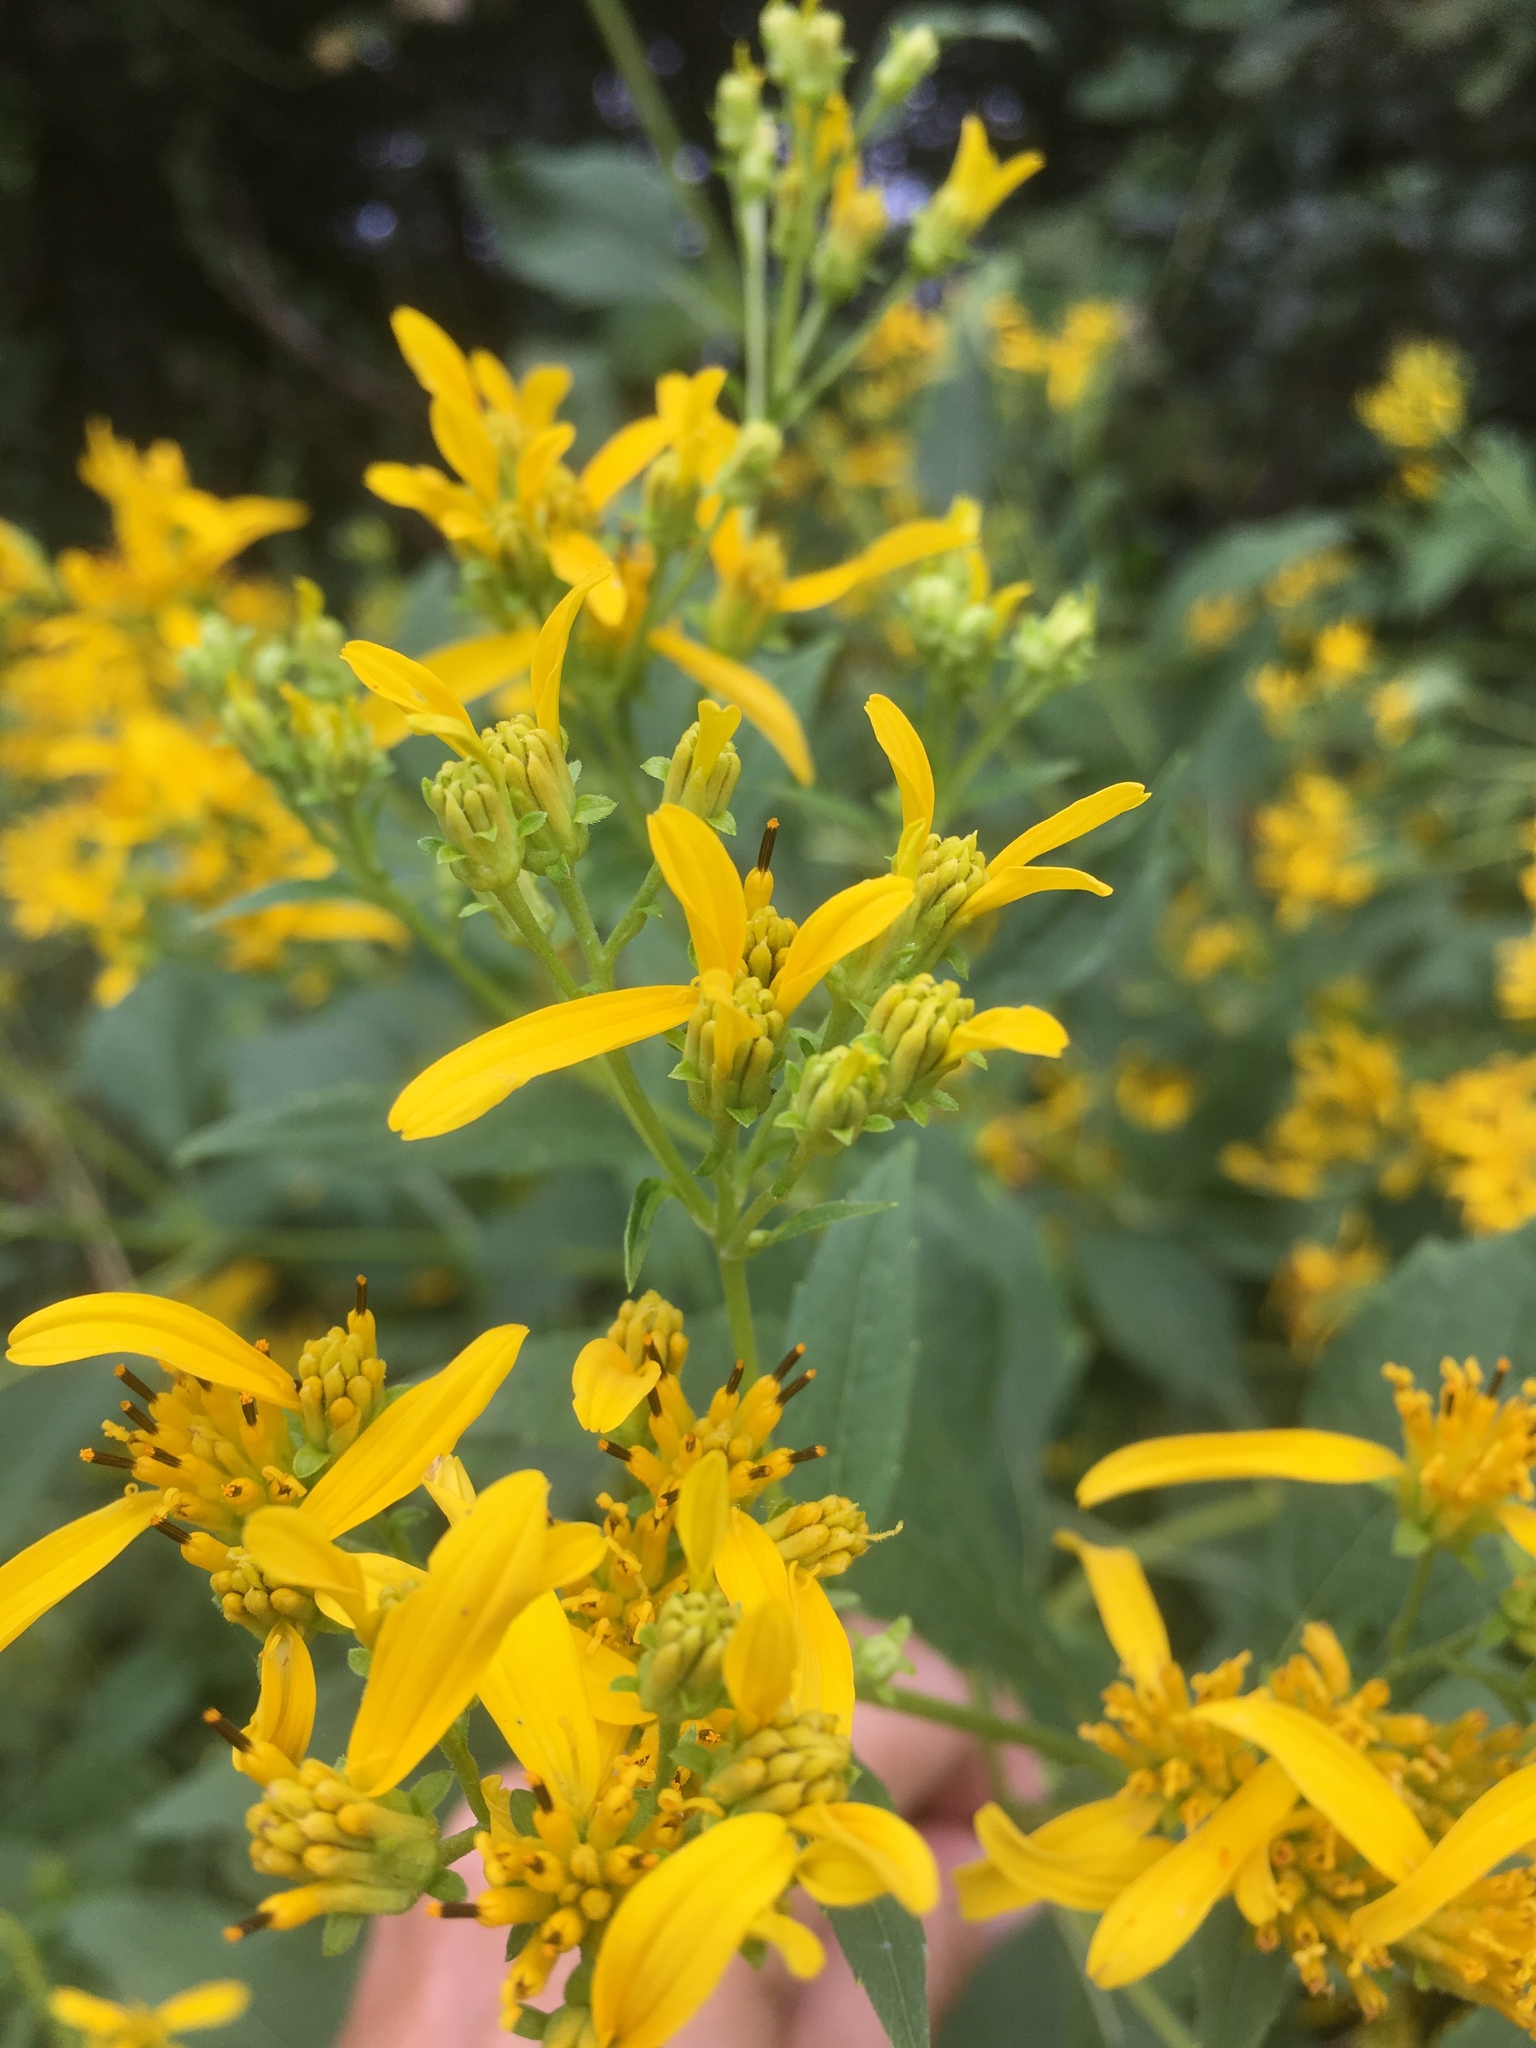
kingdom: Plantae
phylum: Tracheophyta
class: Magnoliopsida
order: Asterales
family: Asteraceae
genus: Verbesina
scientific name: Verbesina occidentalis
